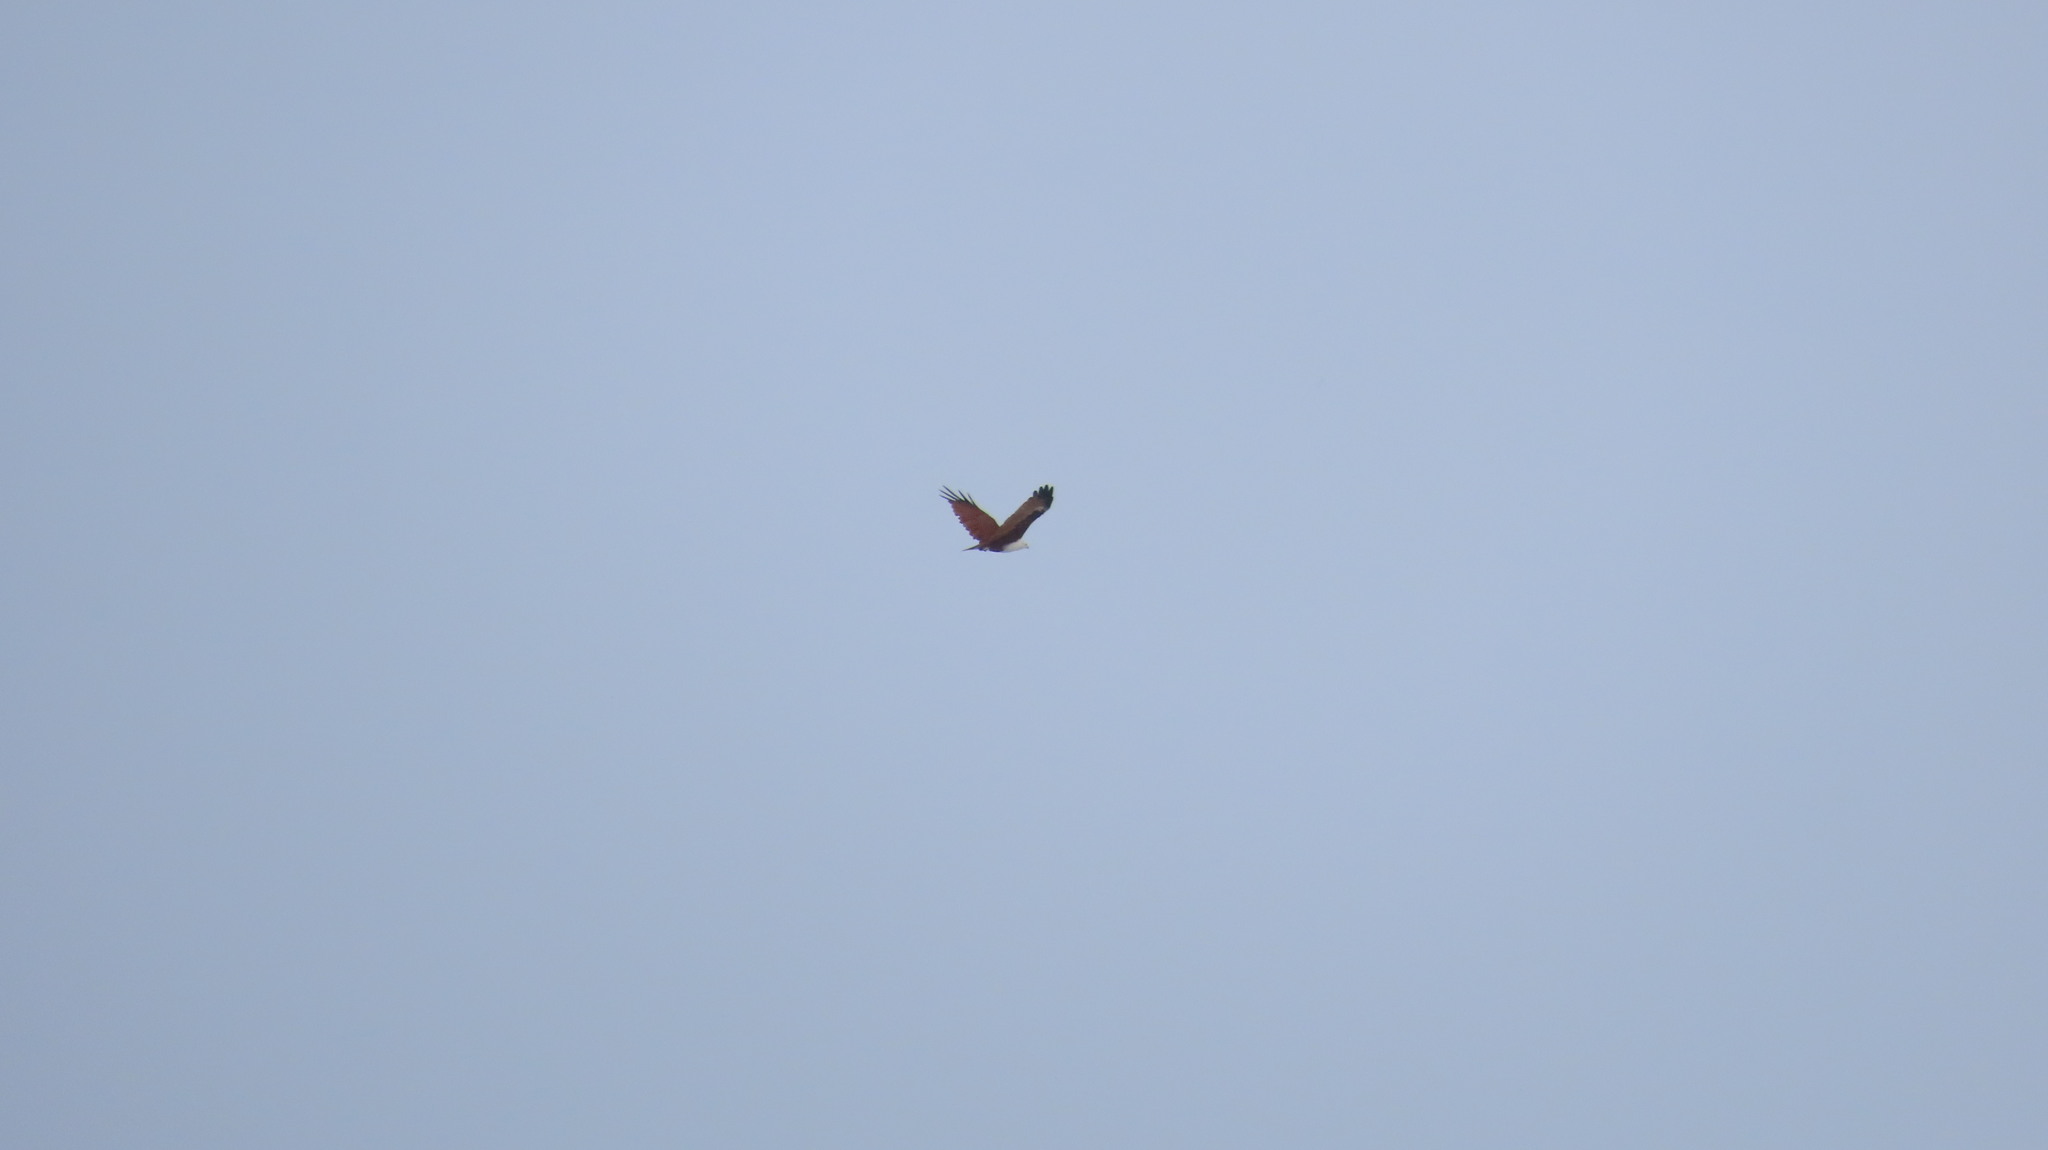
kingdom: Animalia
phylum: Chordata
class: Aves
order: Accipitriformes
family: Accipitridae
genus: Haliastur
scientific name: Haliastur indus
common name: Brahminy kite
